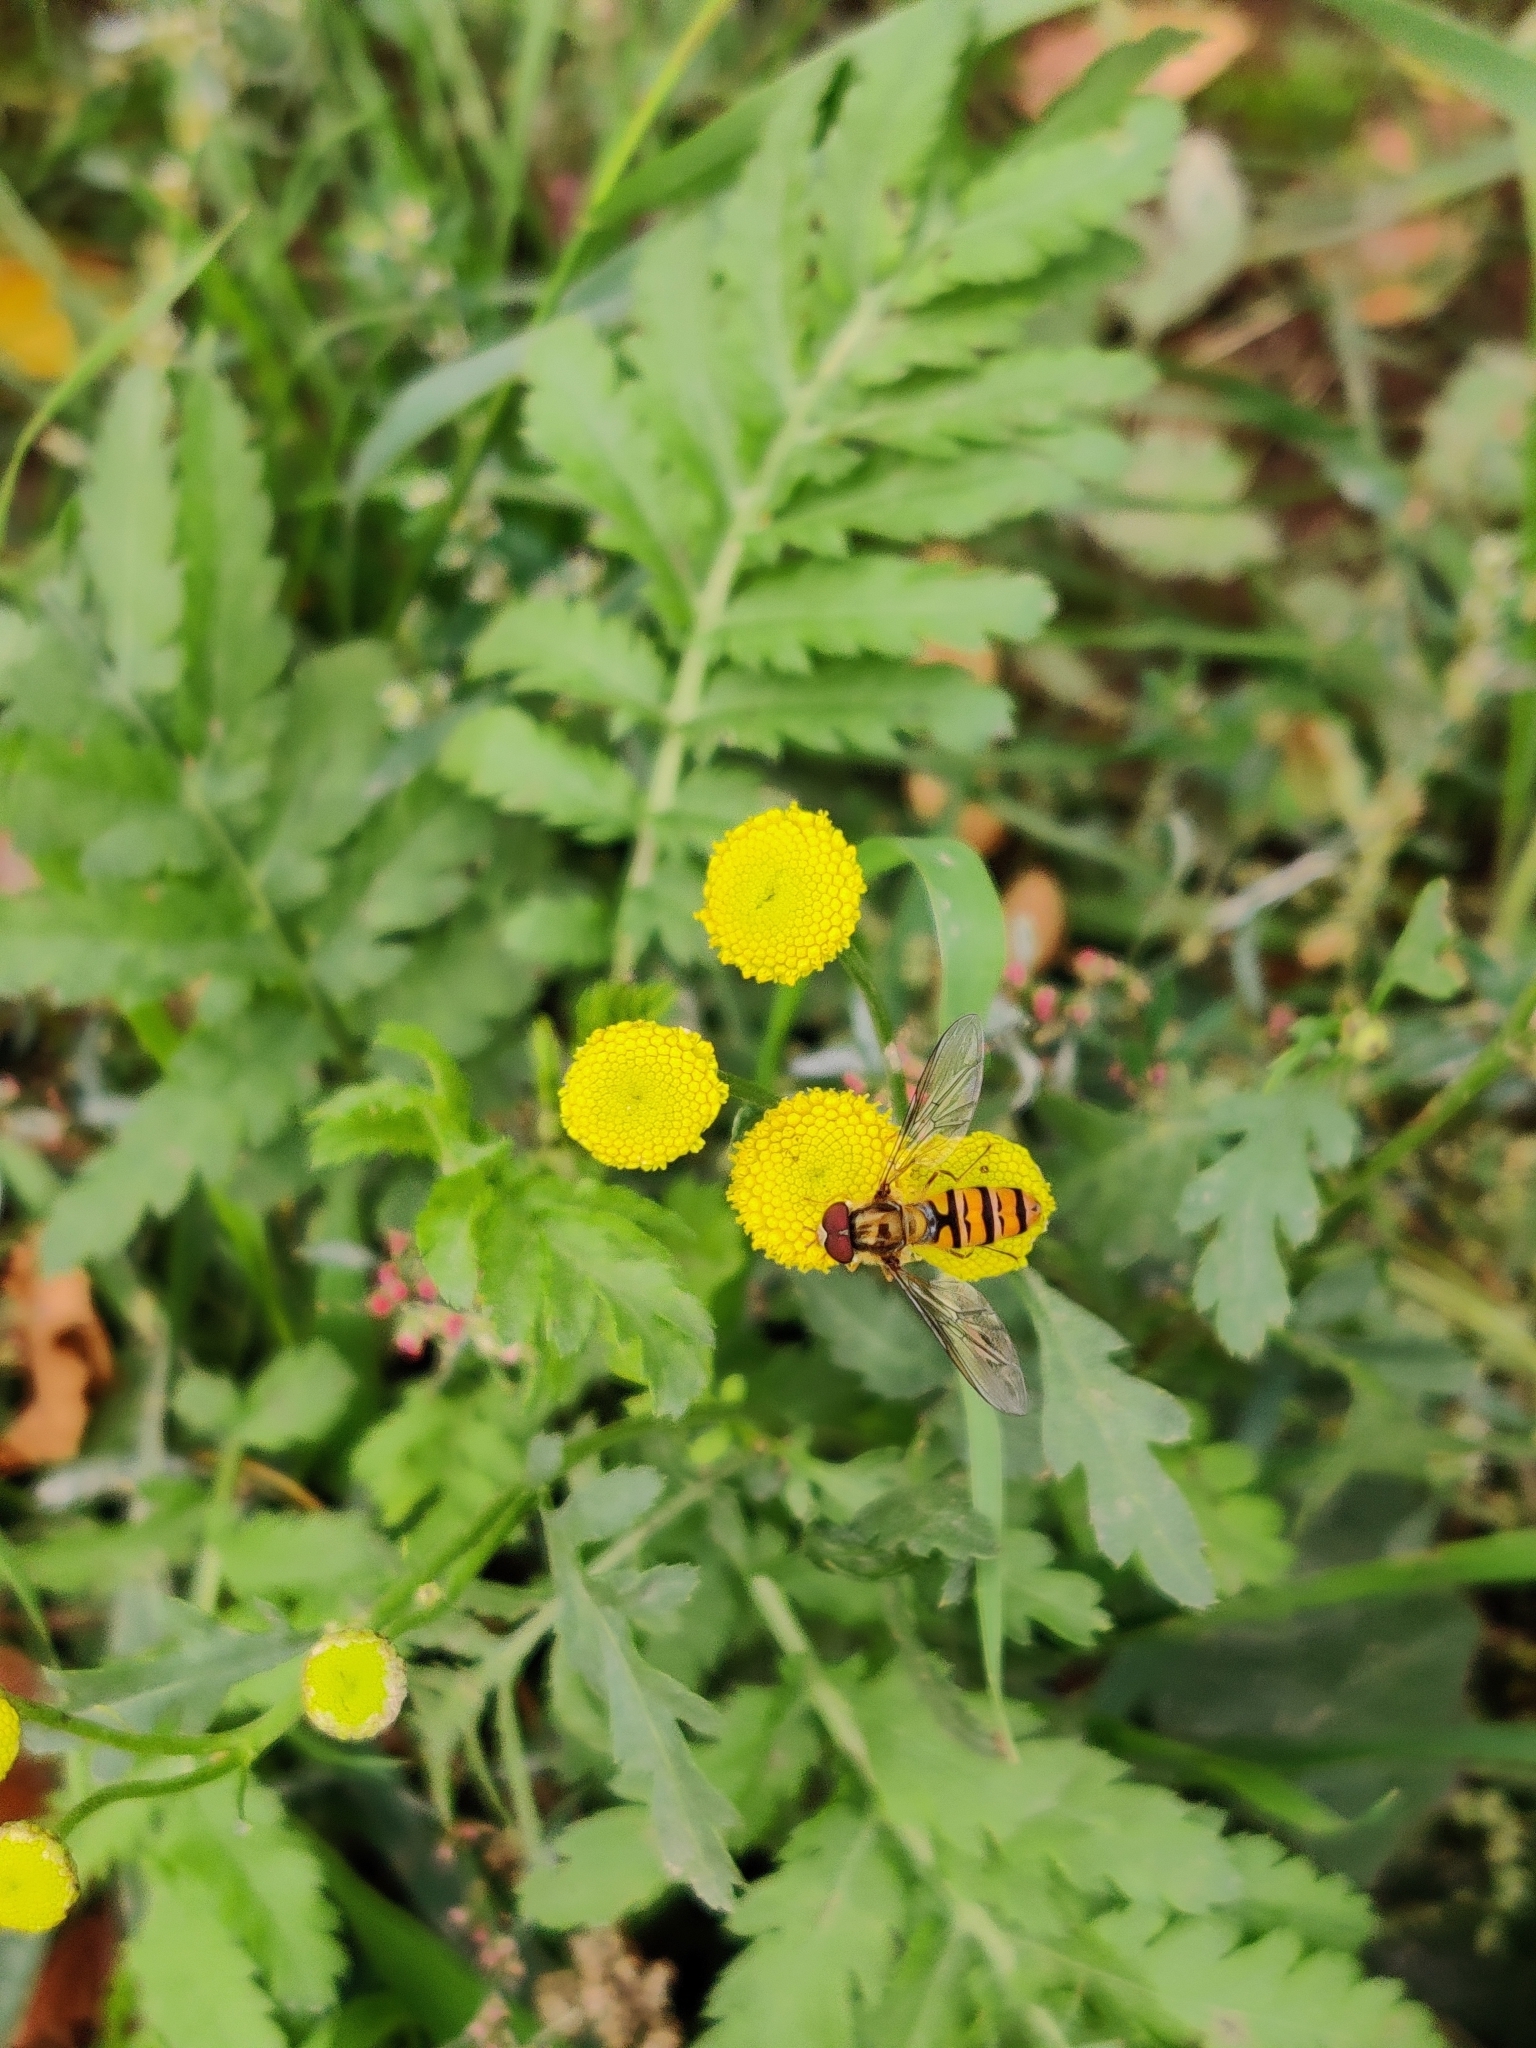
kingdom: Animalia
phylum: Arthropoda
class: Insecta
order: Diptera
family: Syrphidae
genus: Episyrphus
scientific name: Episyrphus balteatus
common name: Marmalade hoverfly
